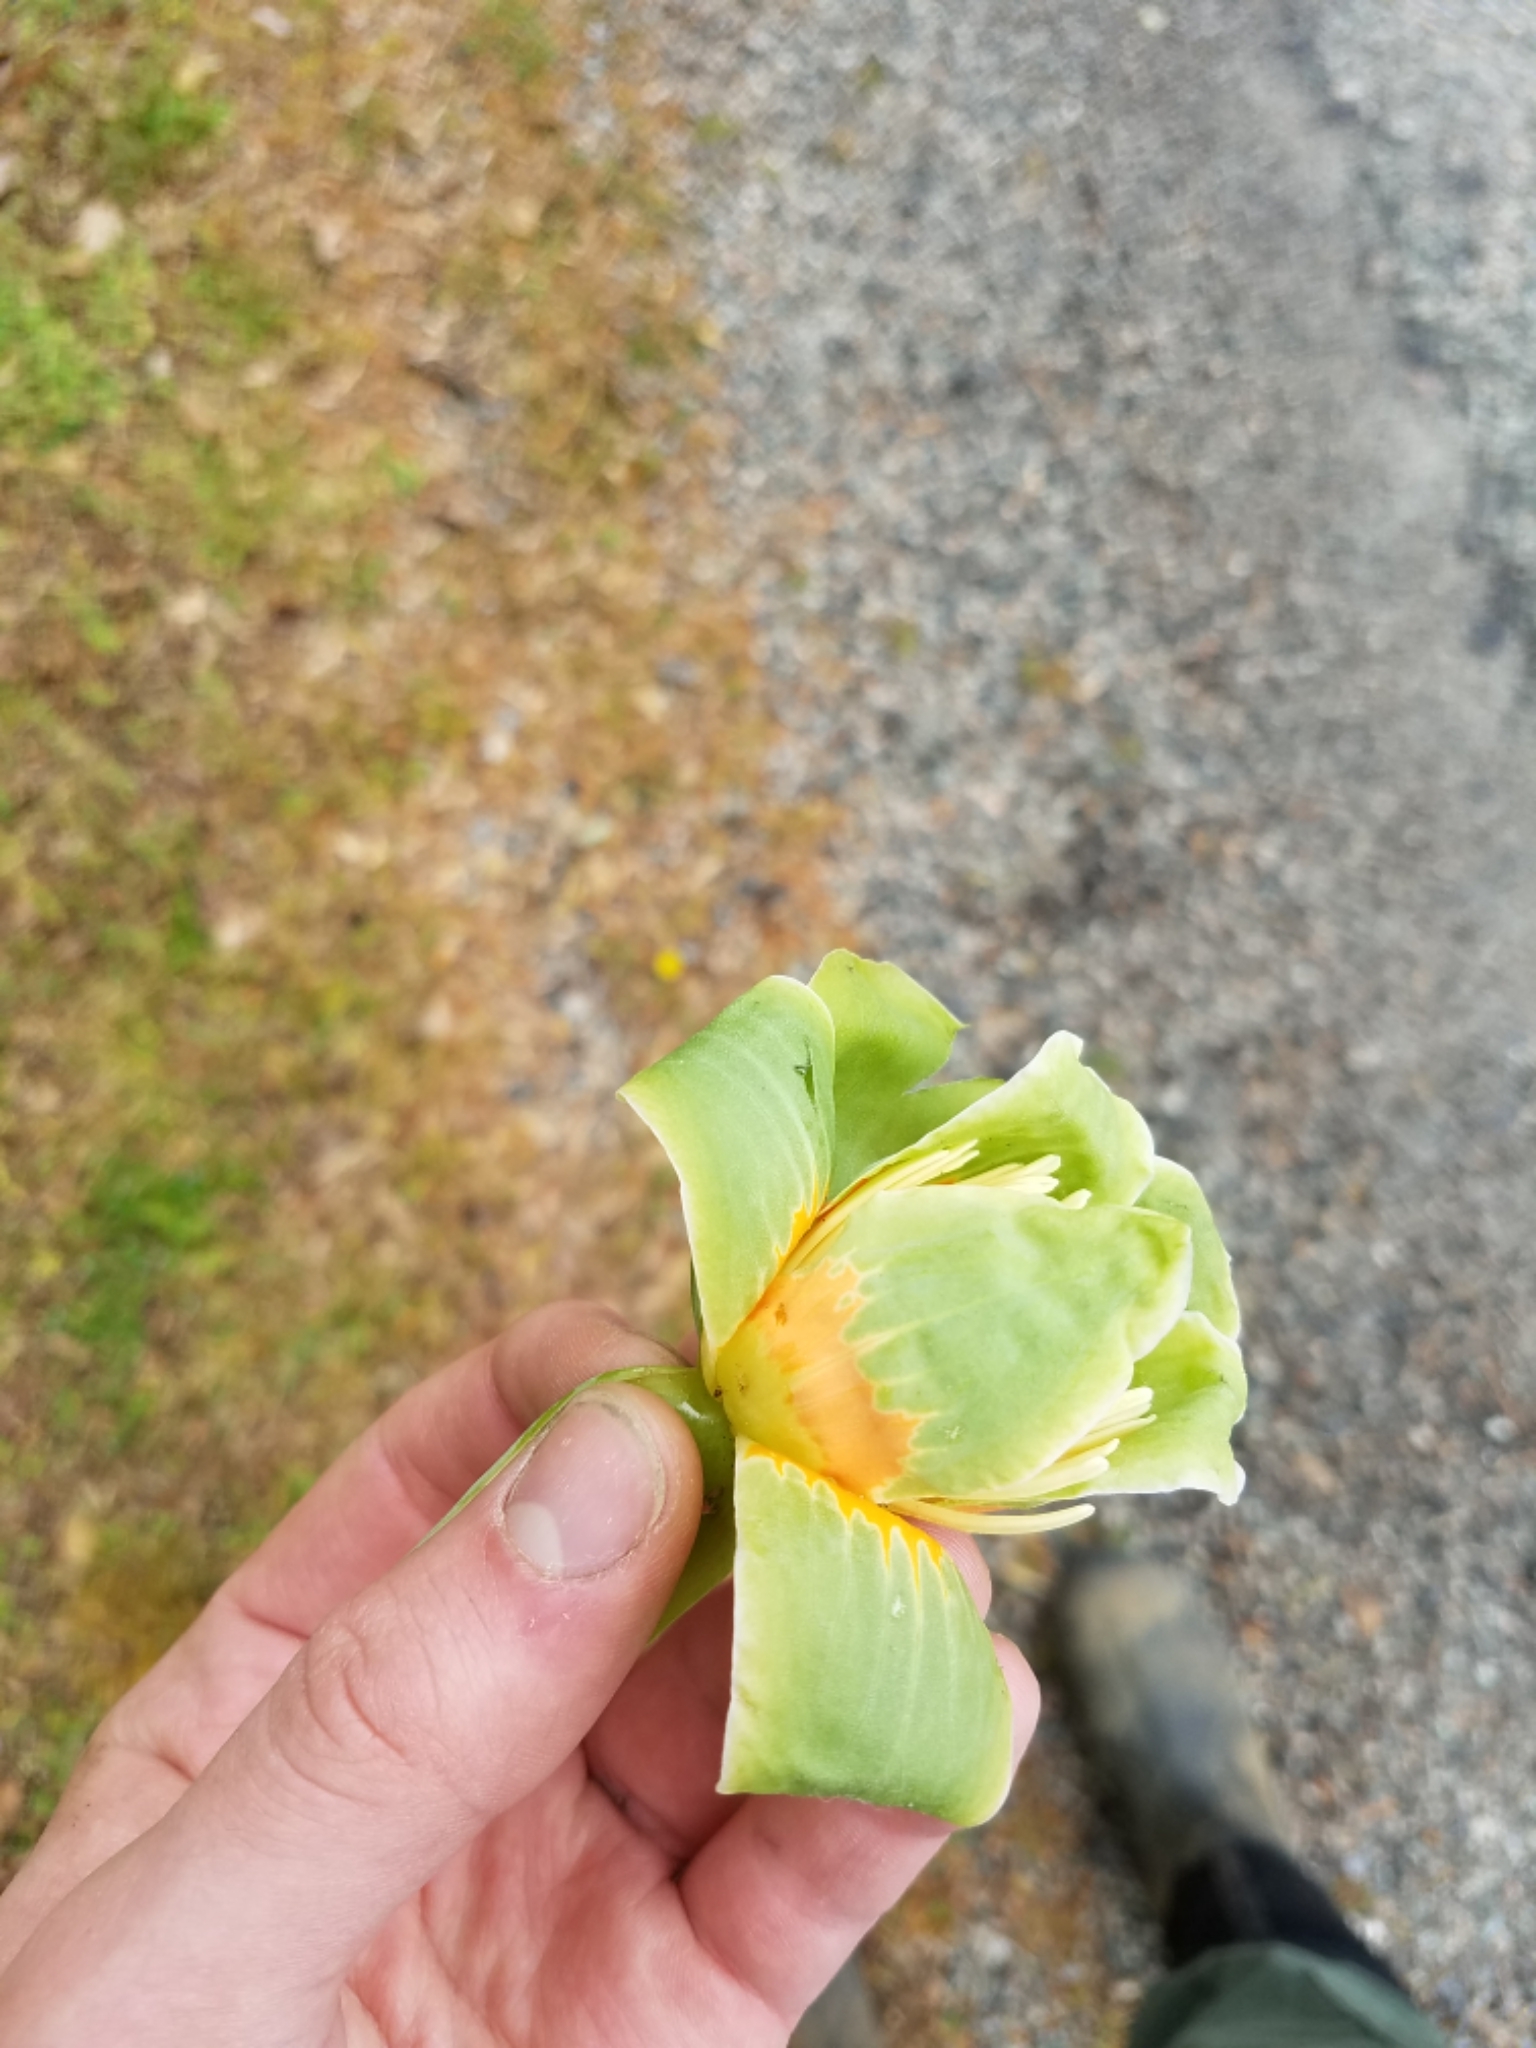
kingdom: Plantae
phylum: Tracheophyta
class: Magnoliopsida
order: Magnoliales
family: Magnoliaceae
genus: Liriodendron
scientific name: Liriodendron tulipifera
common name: Tulip tree
